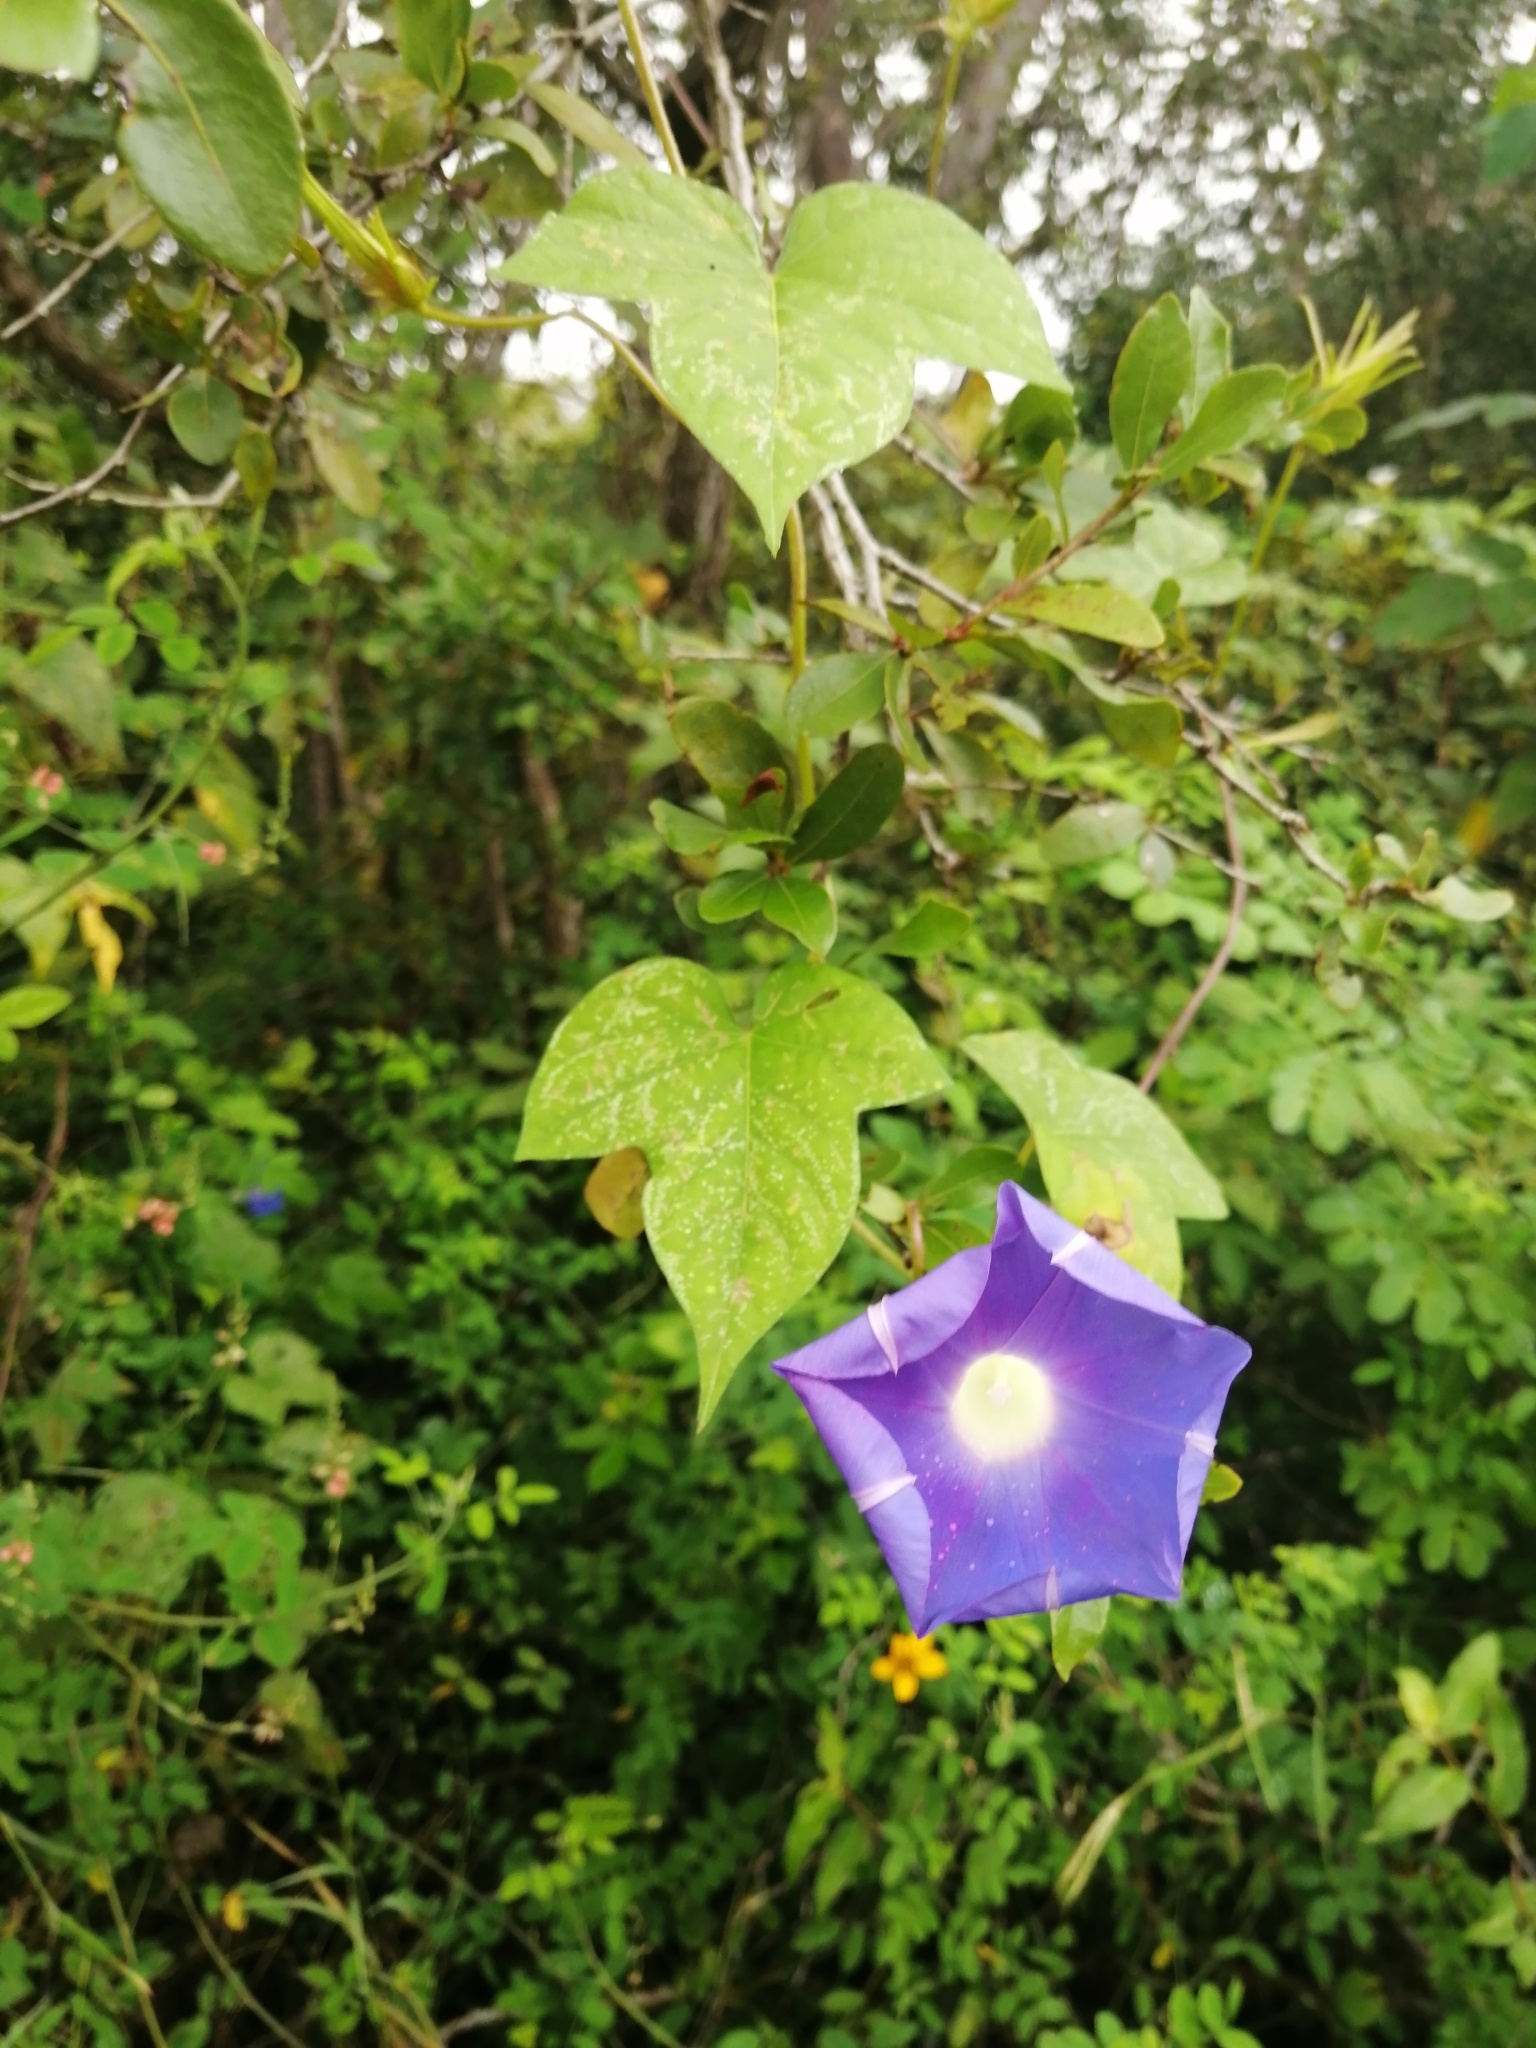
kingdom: Plantae
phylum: Tracheophyta
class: Magnoliopsida
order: Solanales
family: Convolvulaceae
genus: Ipomoea
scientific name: Ipomoea nil
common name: Japanese morning-glory
